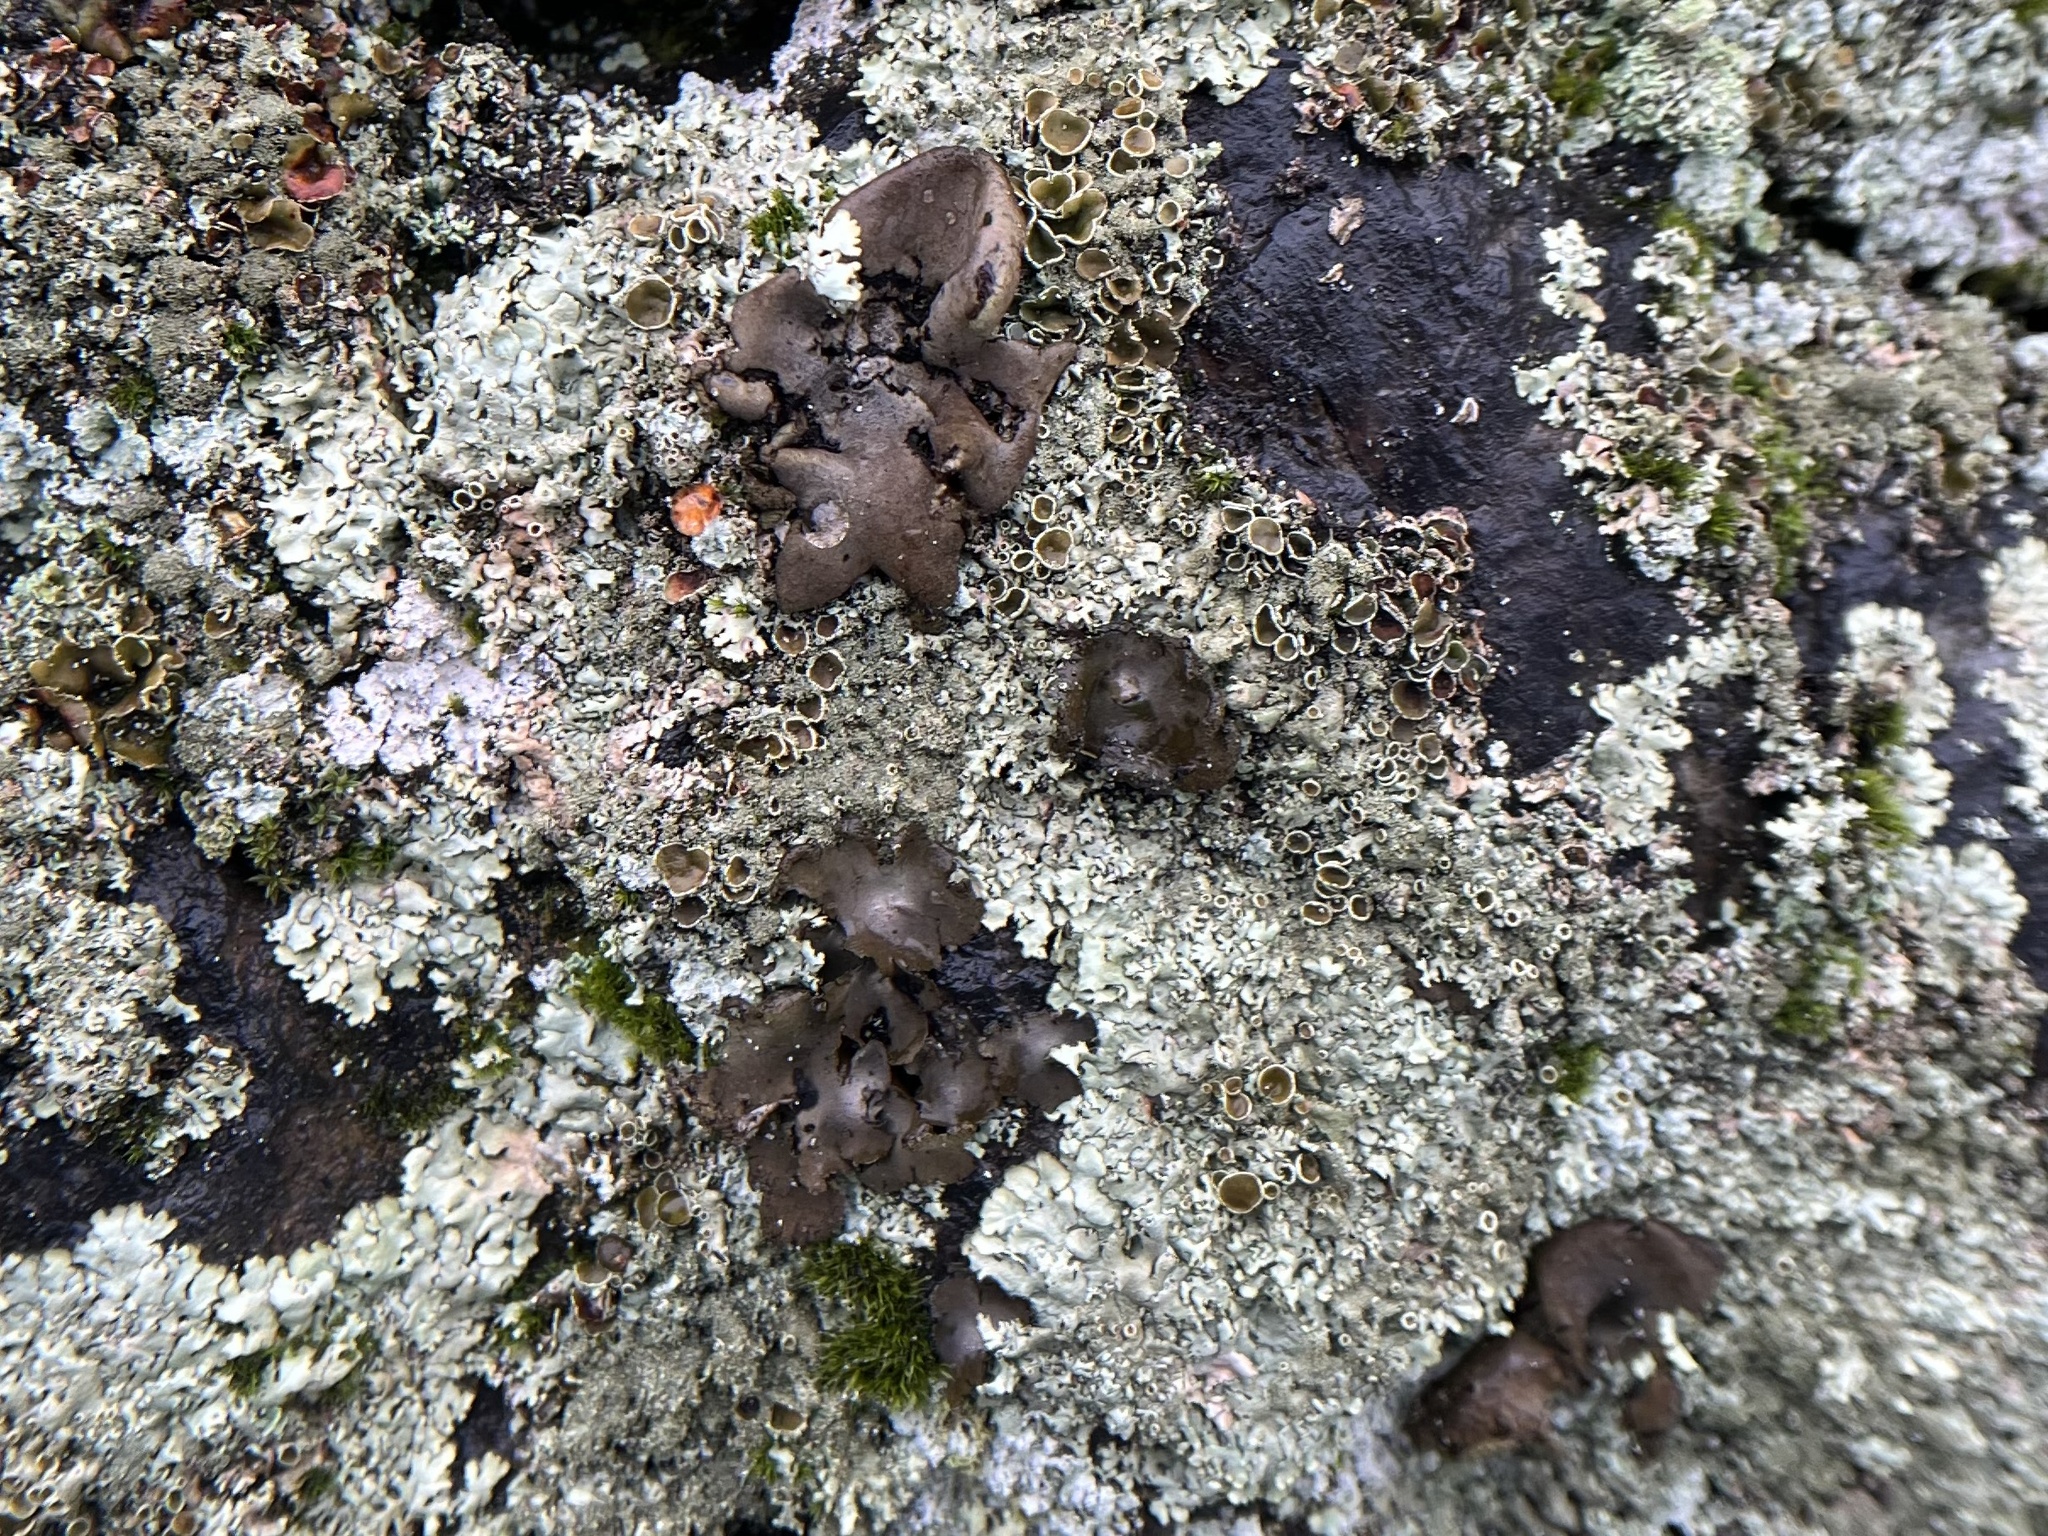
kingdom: Fungi
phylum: Ascomycota
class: Lecanoromycetes
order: Umbilicariales
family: Umbilicariaceae
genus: Umbilicaria
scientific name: Umbilicaria hirsuta
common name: Granulating rocktripe lichen
